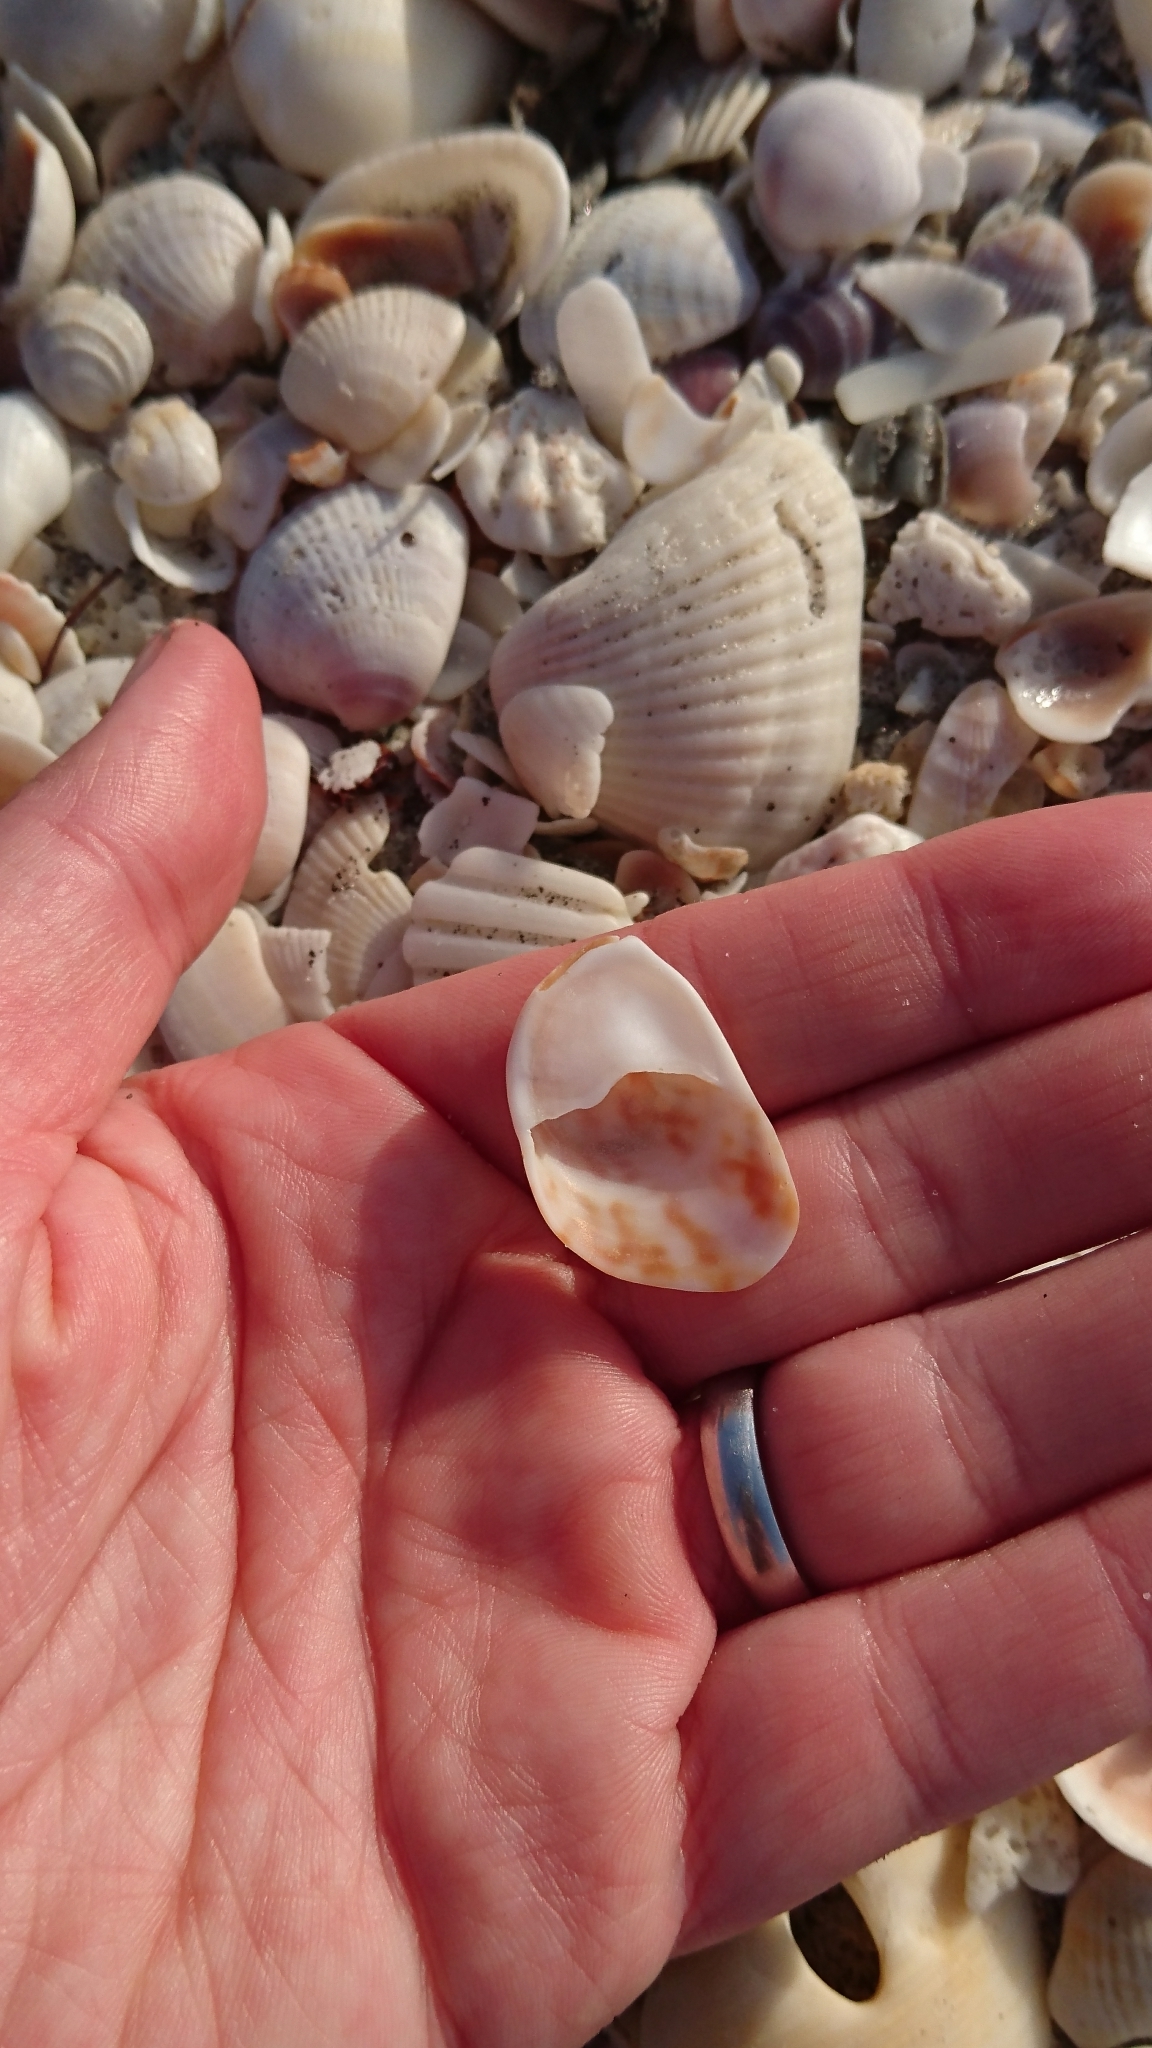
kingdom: Animalia
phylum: Mollusca
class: Gastropoda
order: Littorinimorpha
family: Calyptraeidae
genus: Crepidula
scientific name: Crepidula fornicata
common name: Slipper limpet
